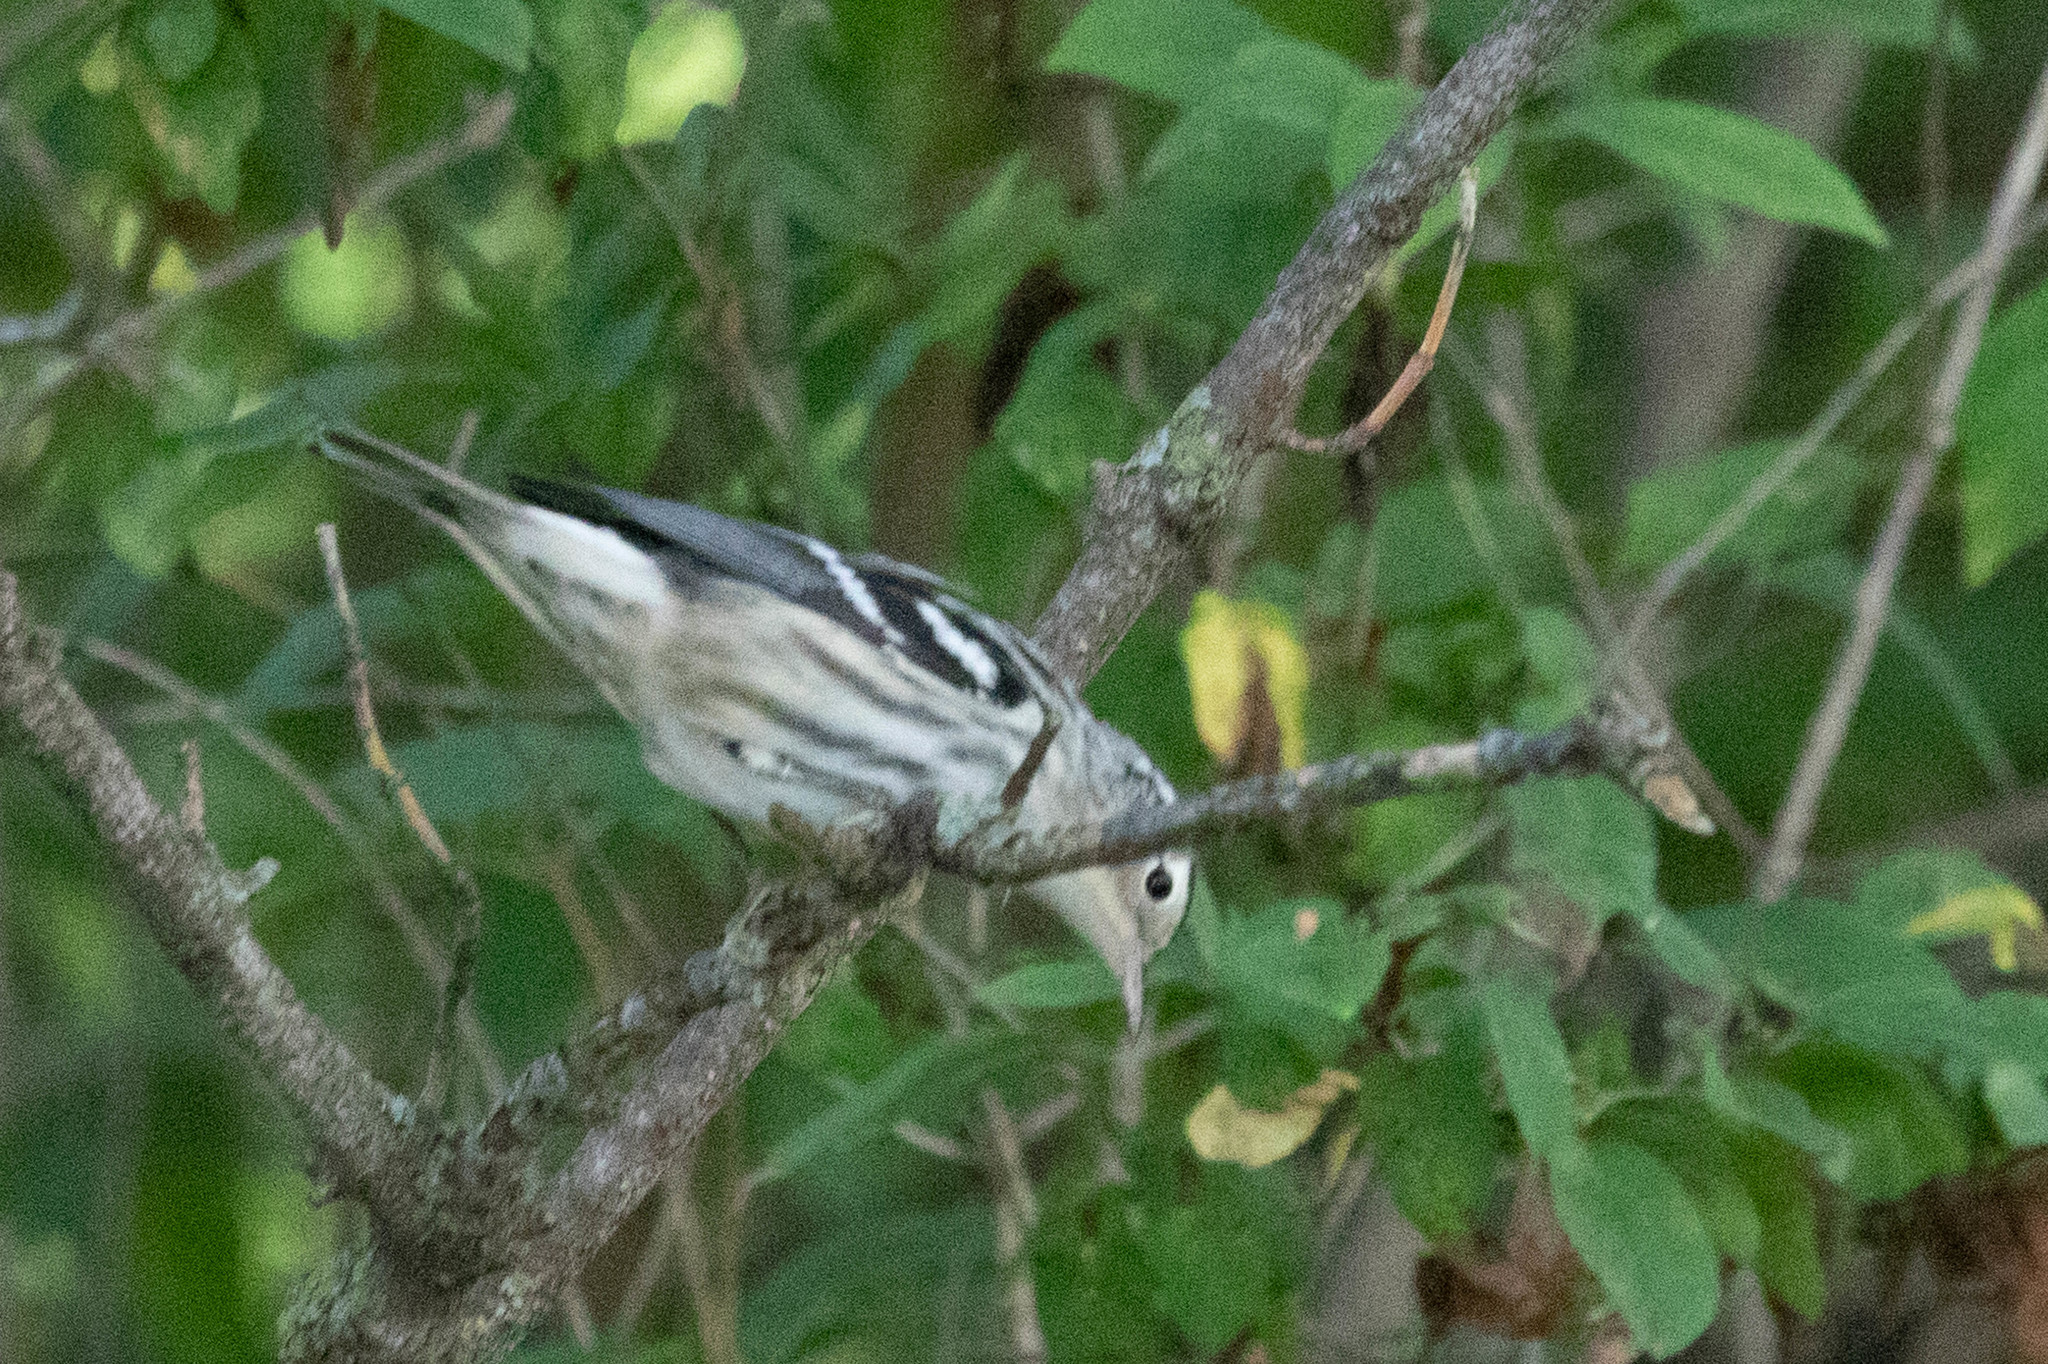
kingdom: Animalia
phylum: Chordata
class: Aves
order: Passeriformes
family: Parulidae
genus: Mniotilta
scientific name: Mniotilta varia
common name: Black-and-white warbler
